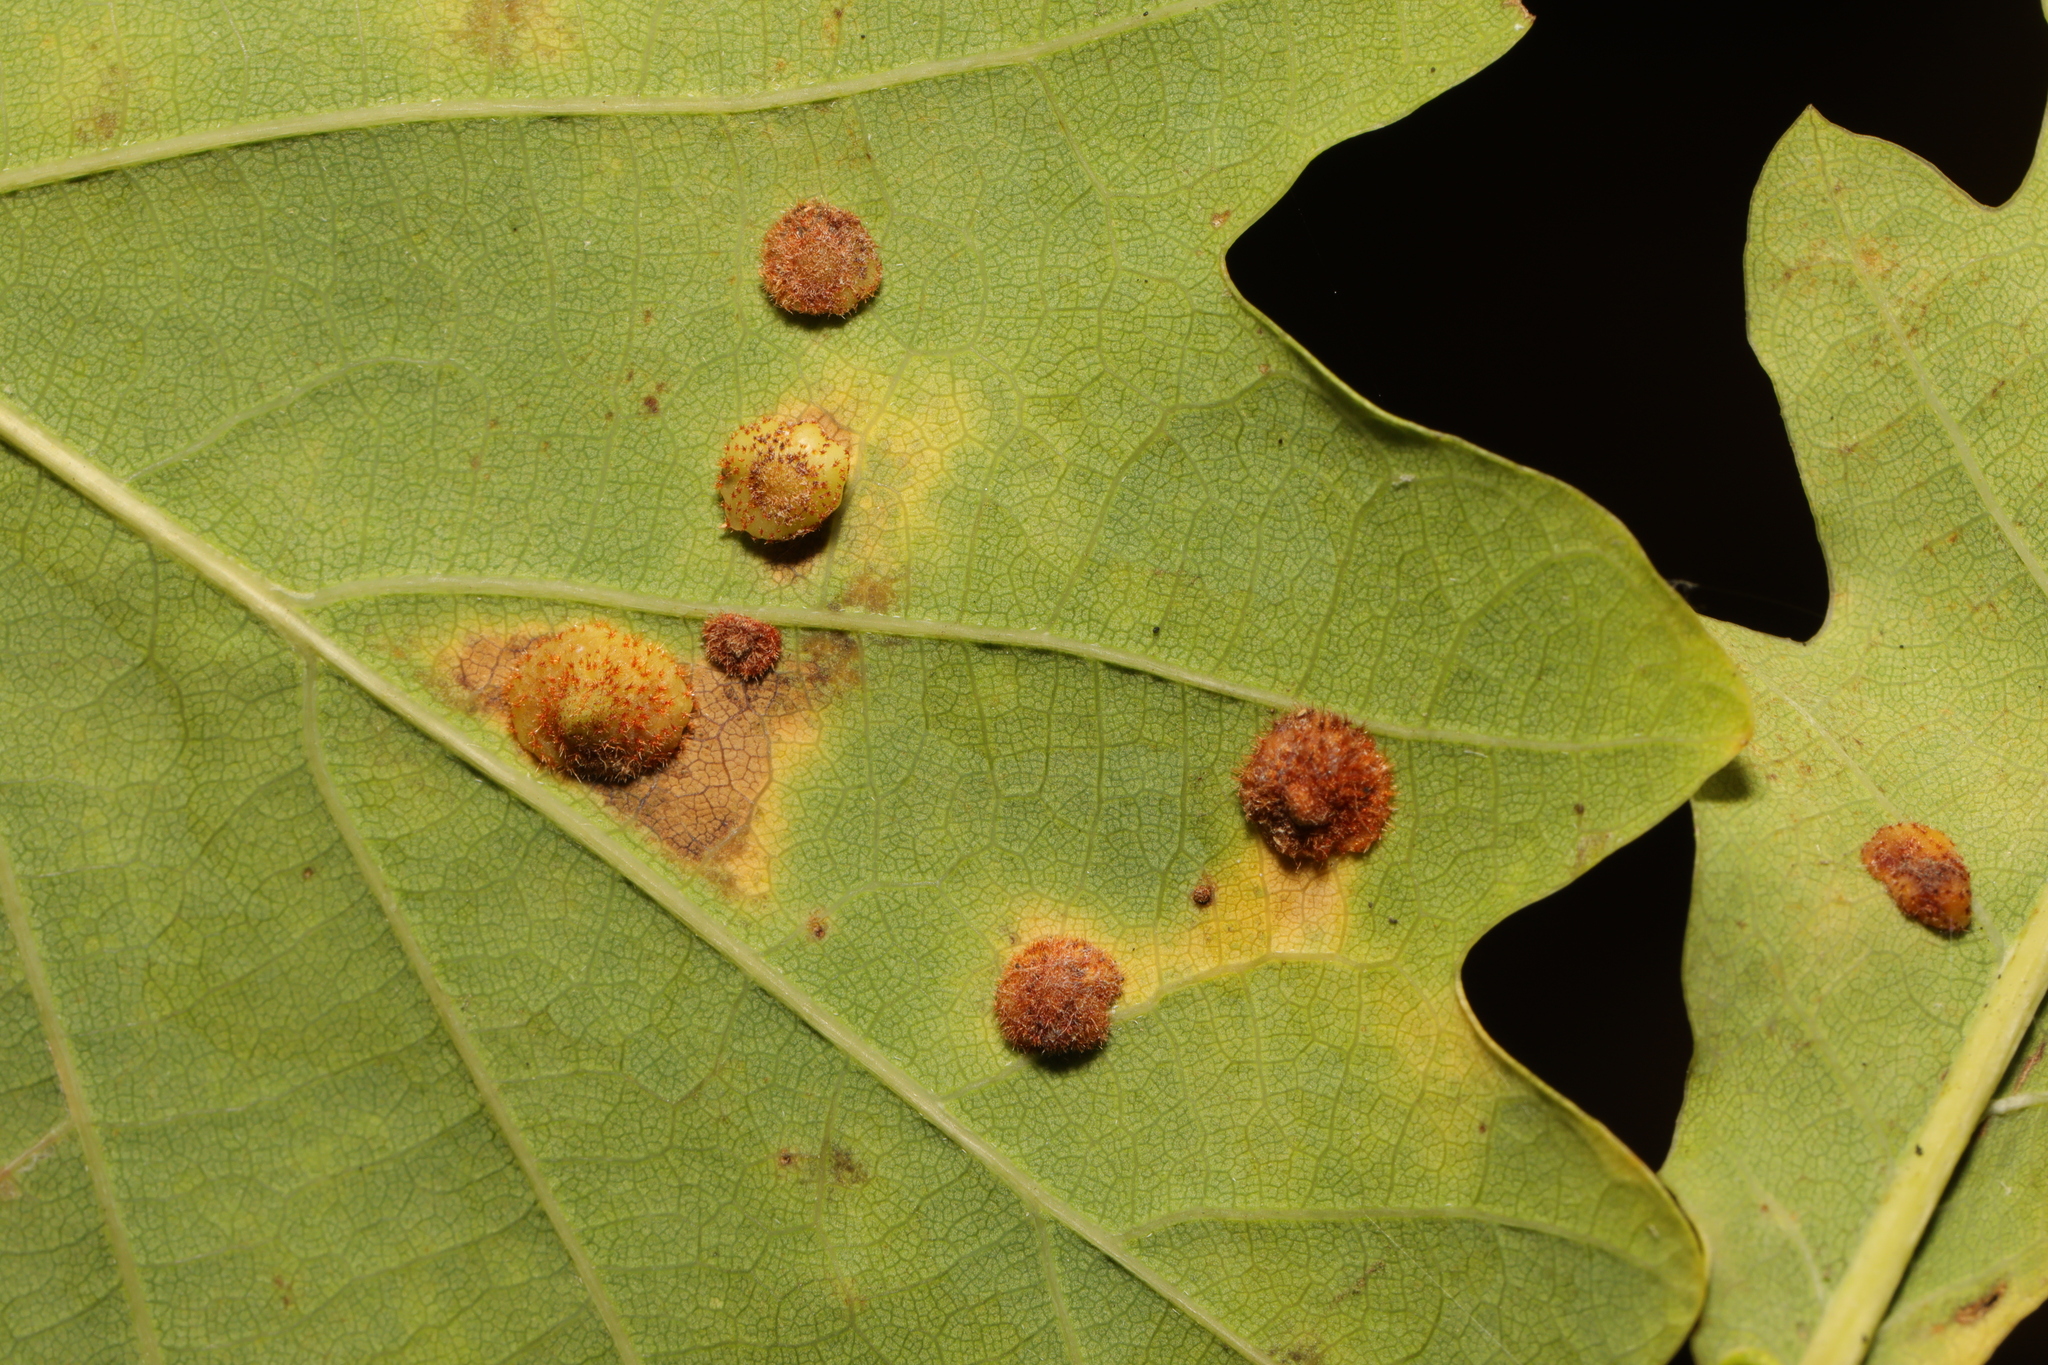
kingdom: Animalia
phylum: Arthropoda
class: Insecta
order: Hymenoptera
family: Cynipidae
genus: Neuroterus
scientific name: Neuroterus quercusbaccarum
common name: Common spangle gall
